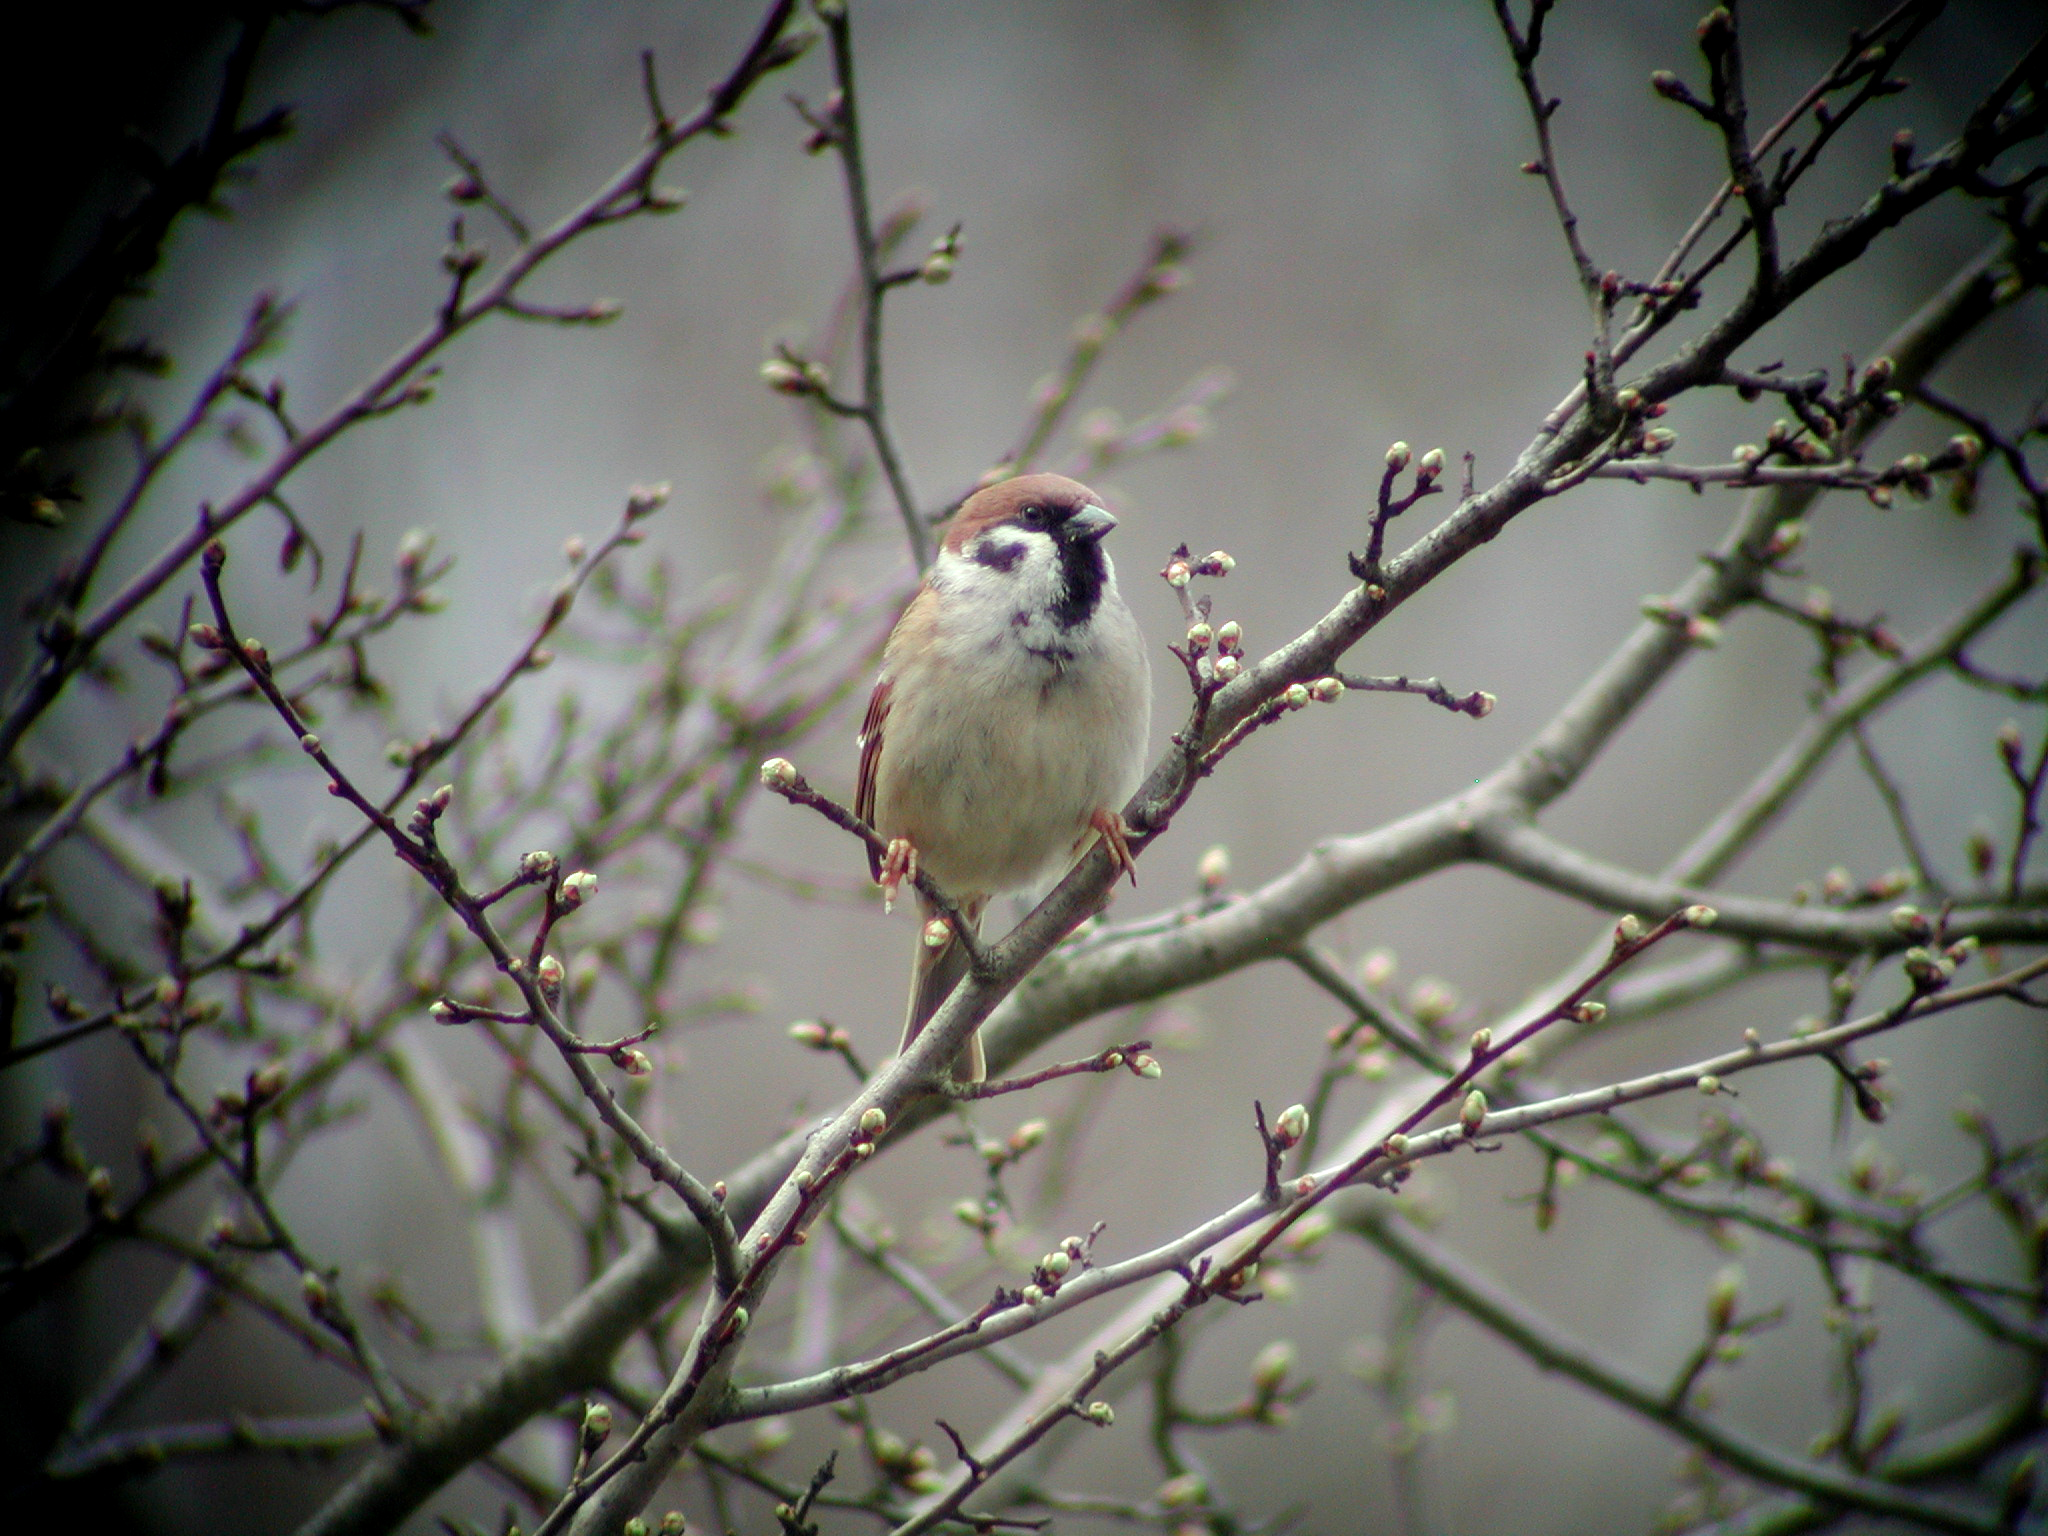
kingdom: Animalia
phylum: Chordata
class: Aves
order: Passeriformes
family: Passeridae
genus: Passer
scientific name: Passer montanus
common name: Eurasian tree sparrow
